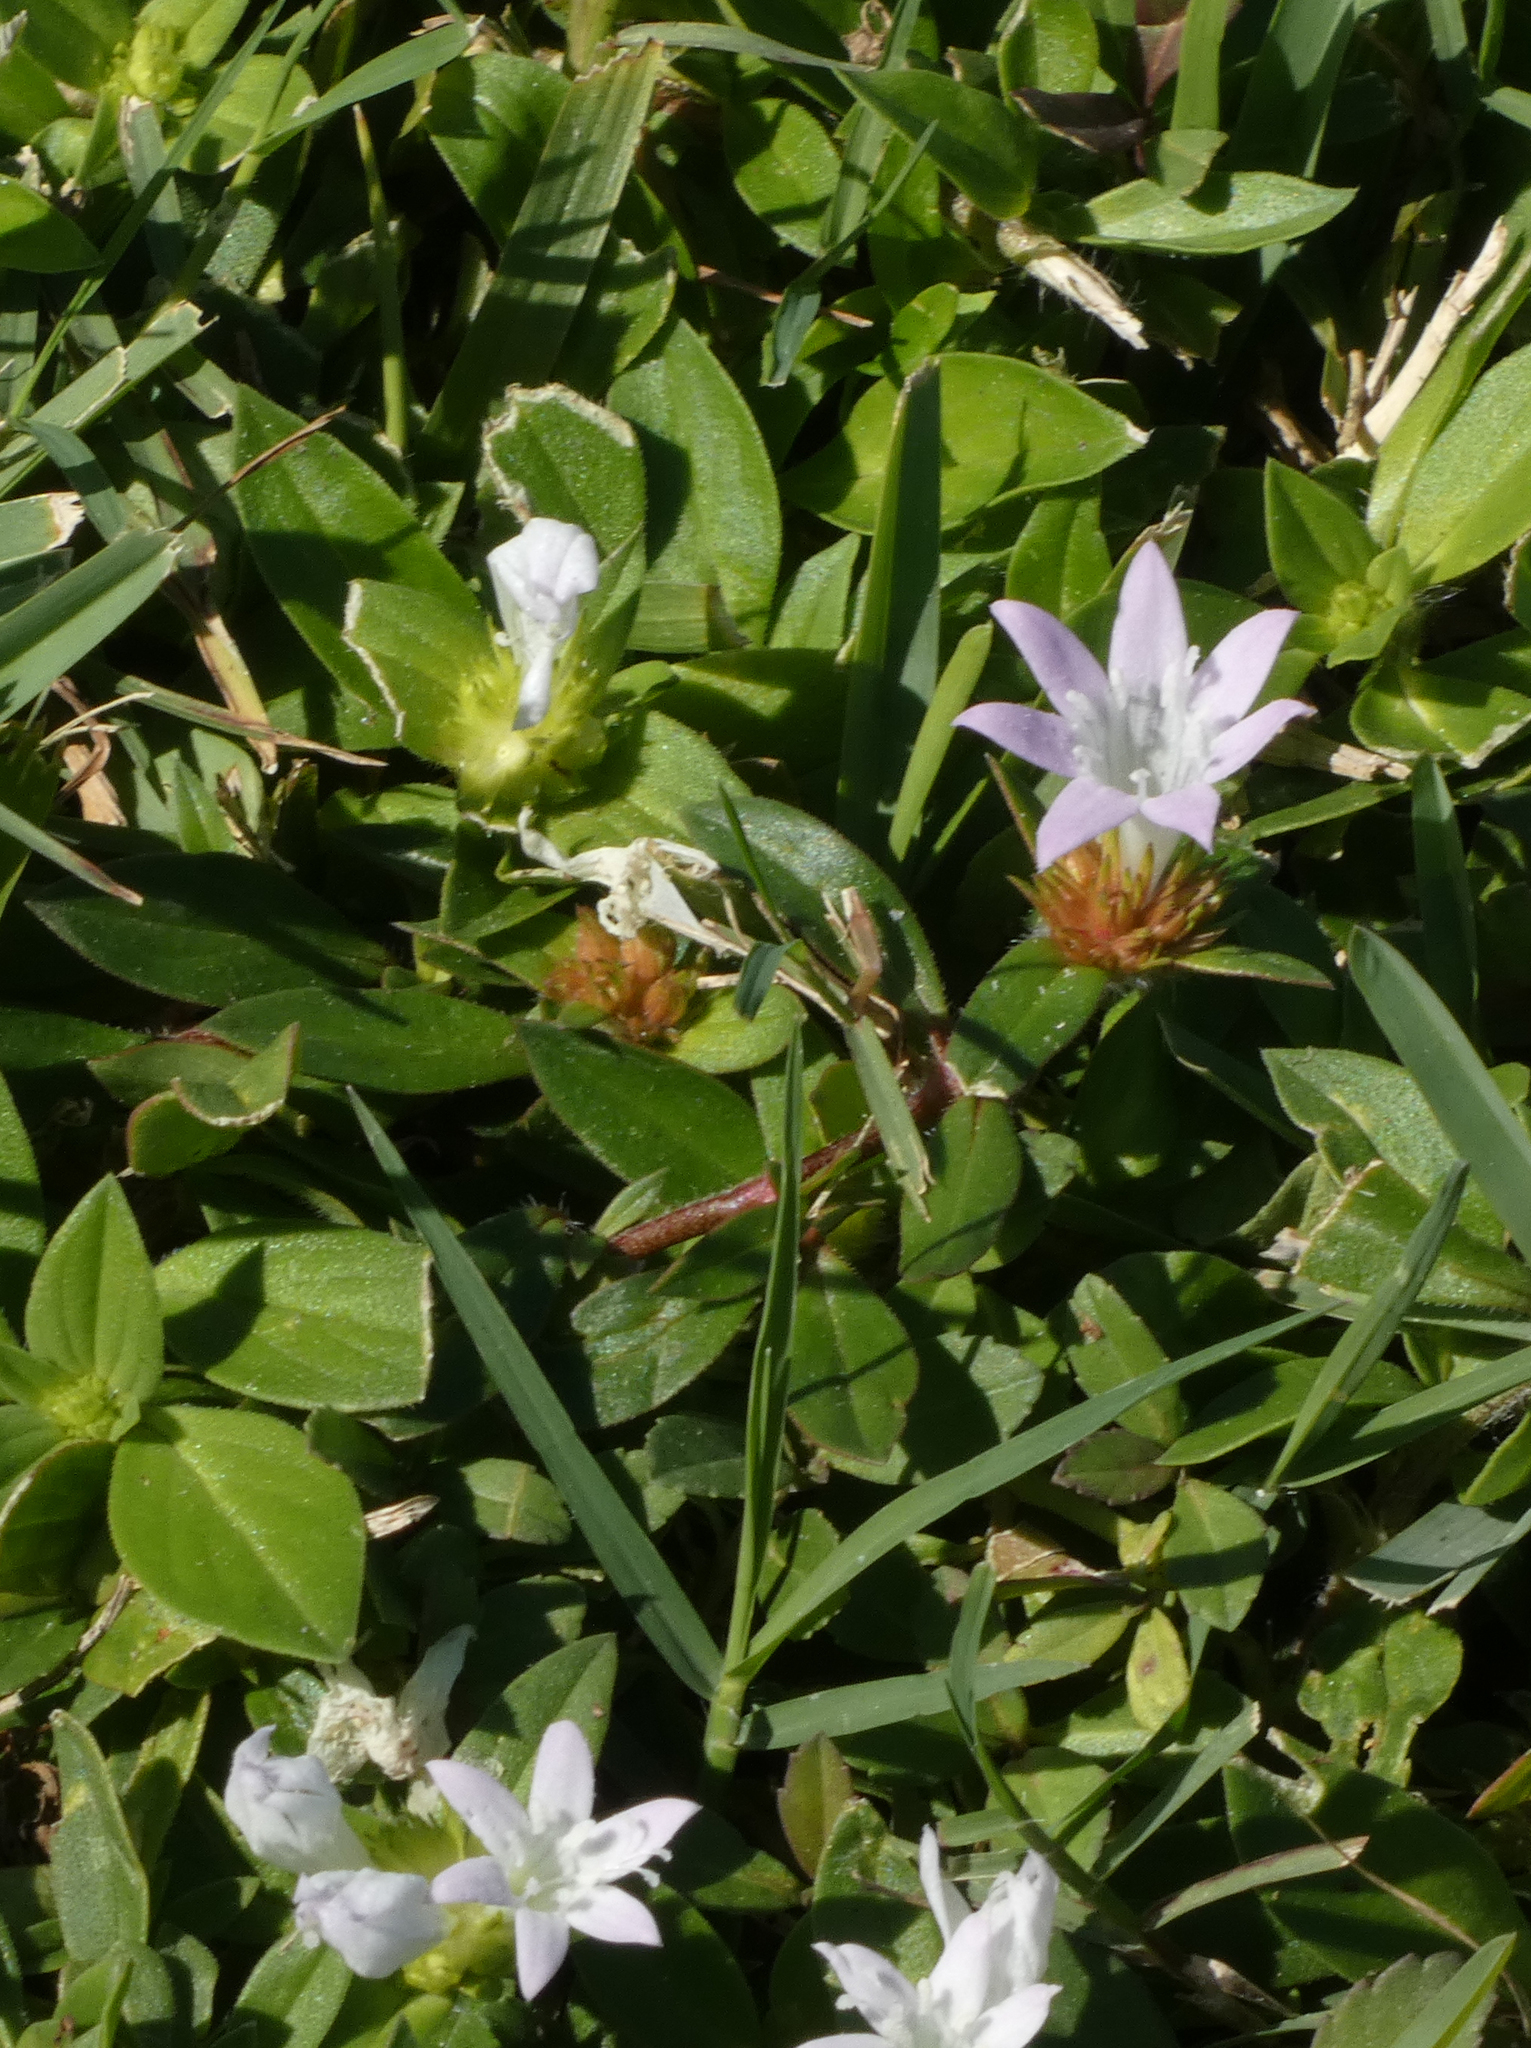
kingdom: Plantae
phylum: Tracheophyta
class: Magnoliopsida
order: Gentianales
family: Rubiaceae
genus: Richardia
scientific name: Richardia grandiflora
